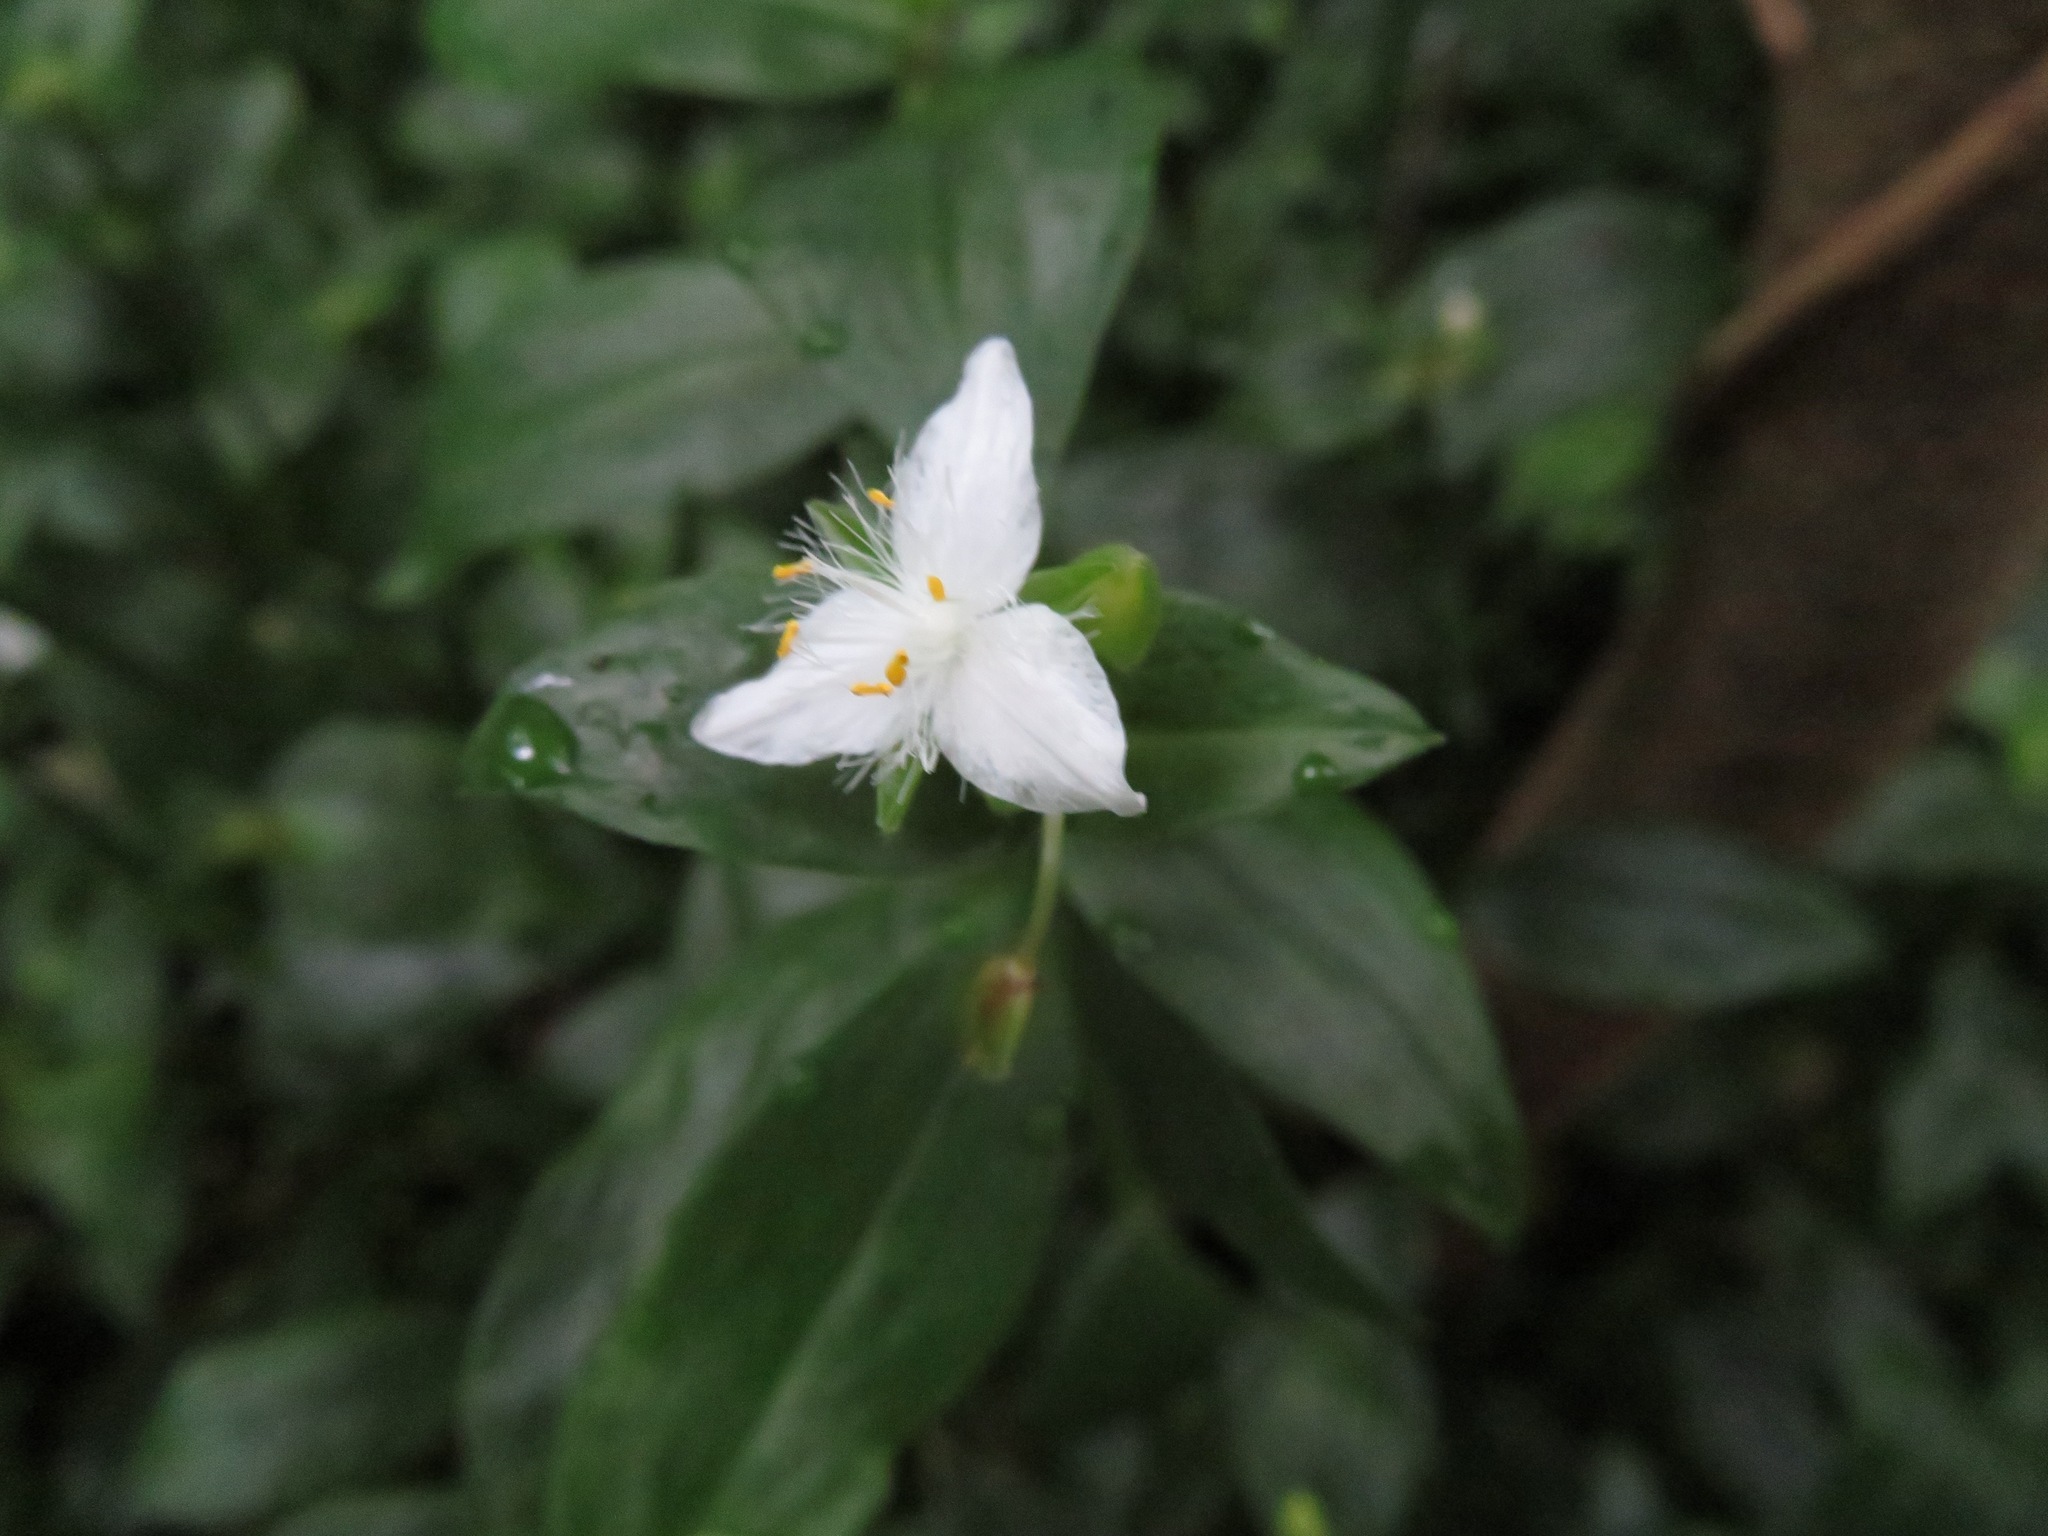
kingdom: Plantae
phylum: Tracheophyta
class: Liliopsida
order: Commelinales
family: Commelinaceae
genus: Tradescantia
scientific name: Tradescantia fluminensis
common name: Wandering-jew
